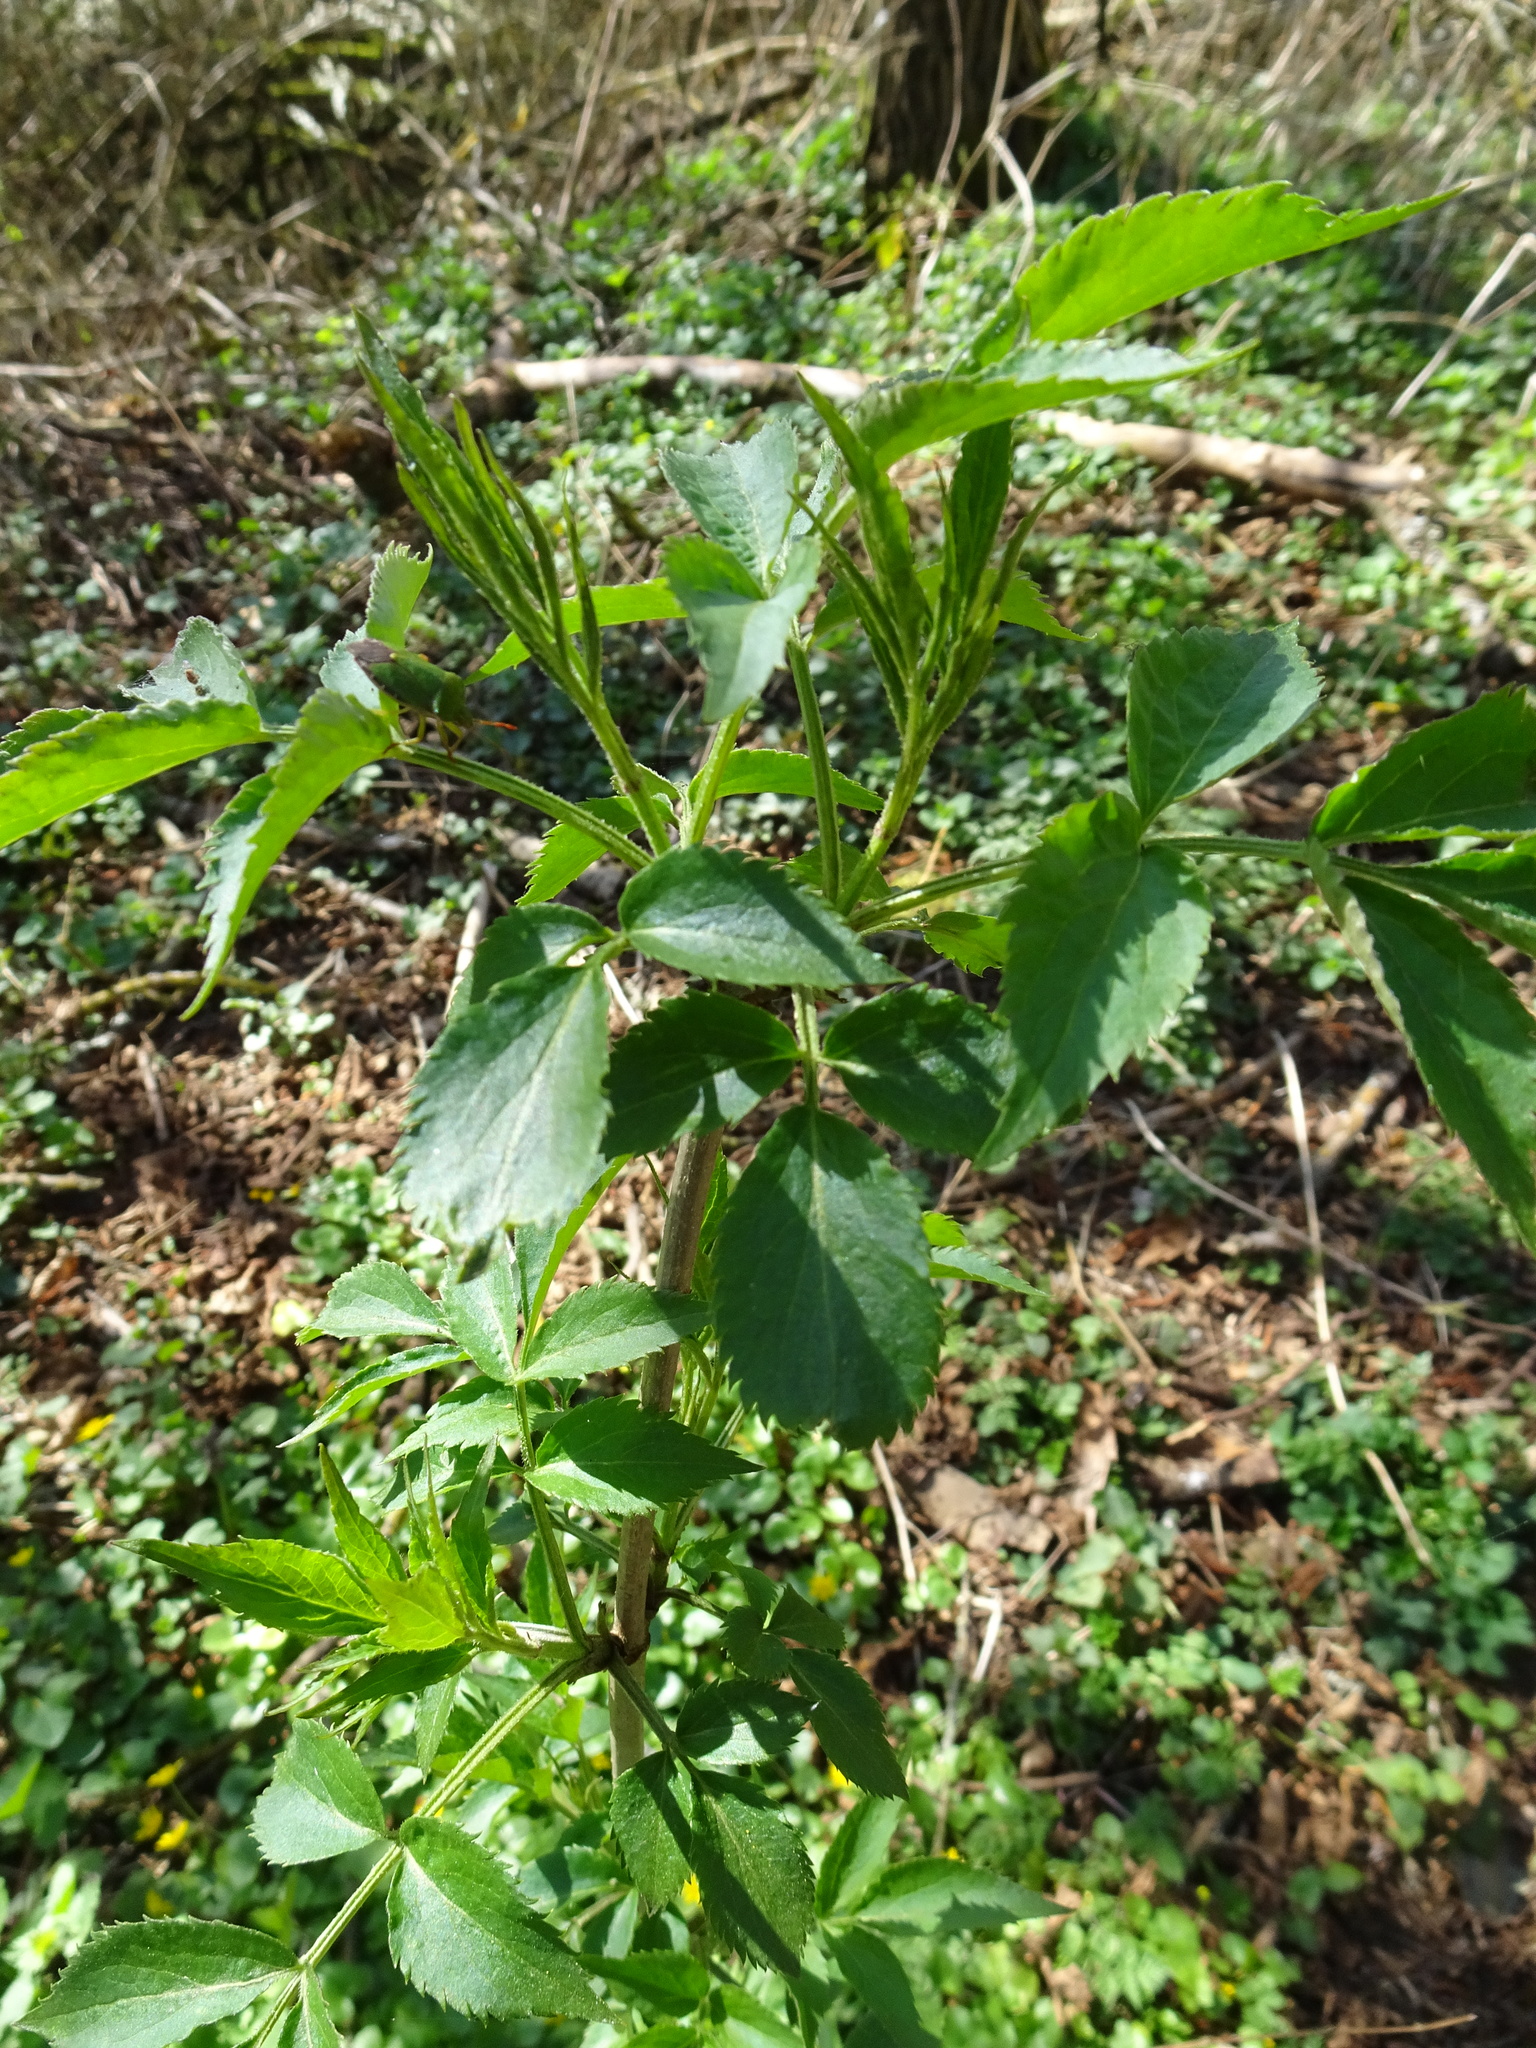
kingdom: Plantae
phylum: Tracheophyta
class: Magnoliopsida
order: Dipsacales
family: Viburnaceae
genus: Sambucus
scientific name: Sambucus nigra
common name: Elder
